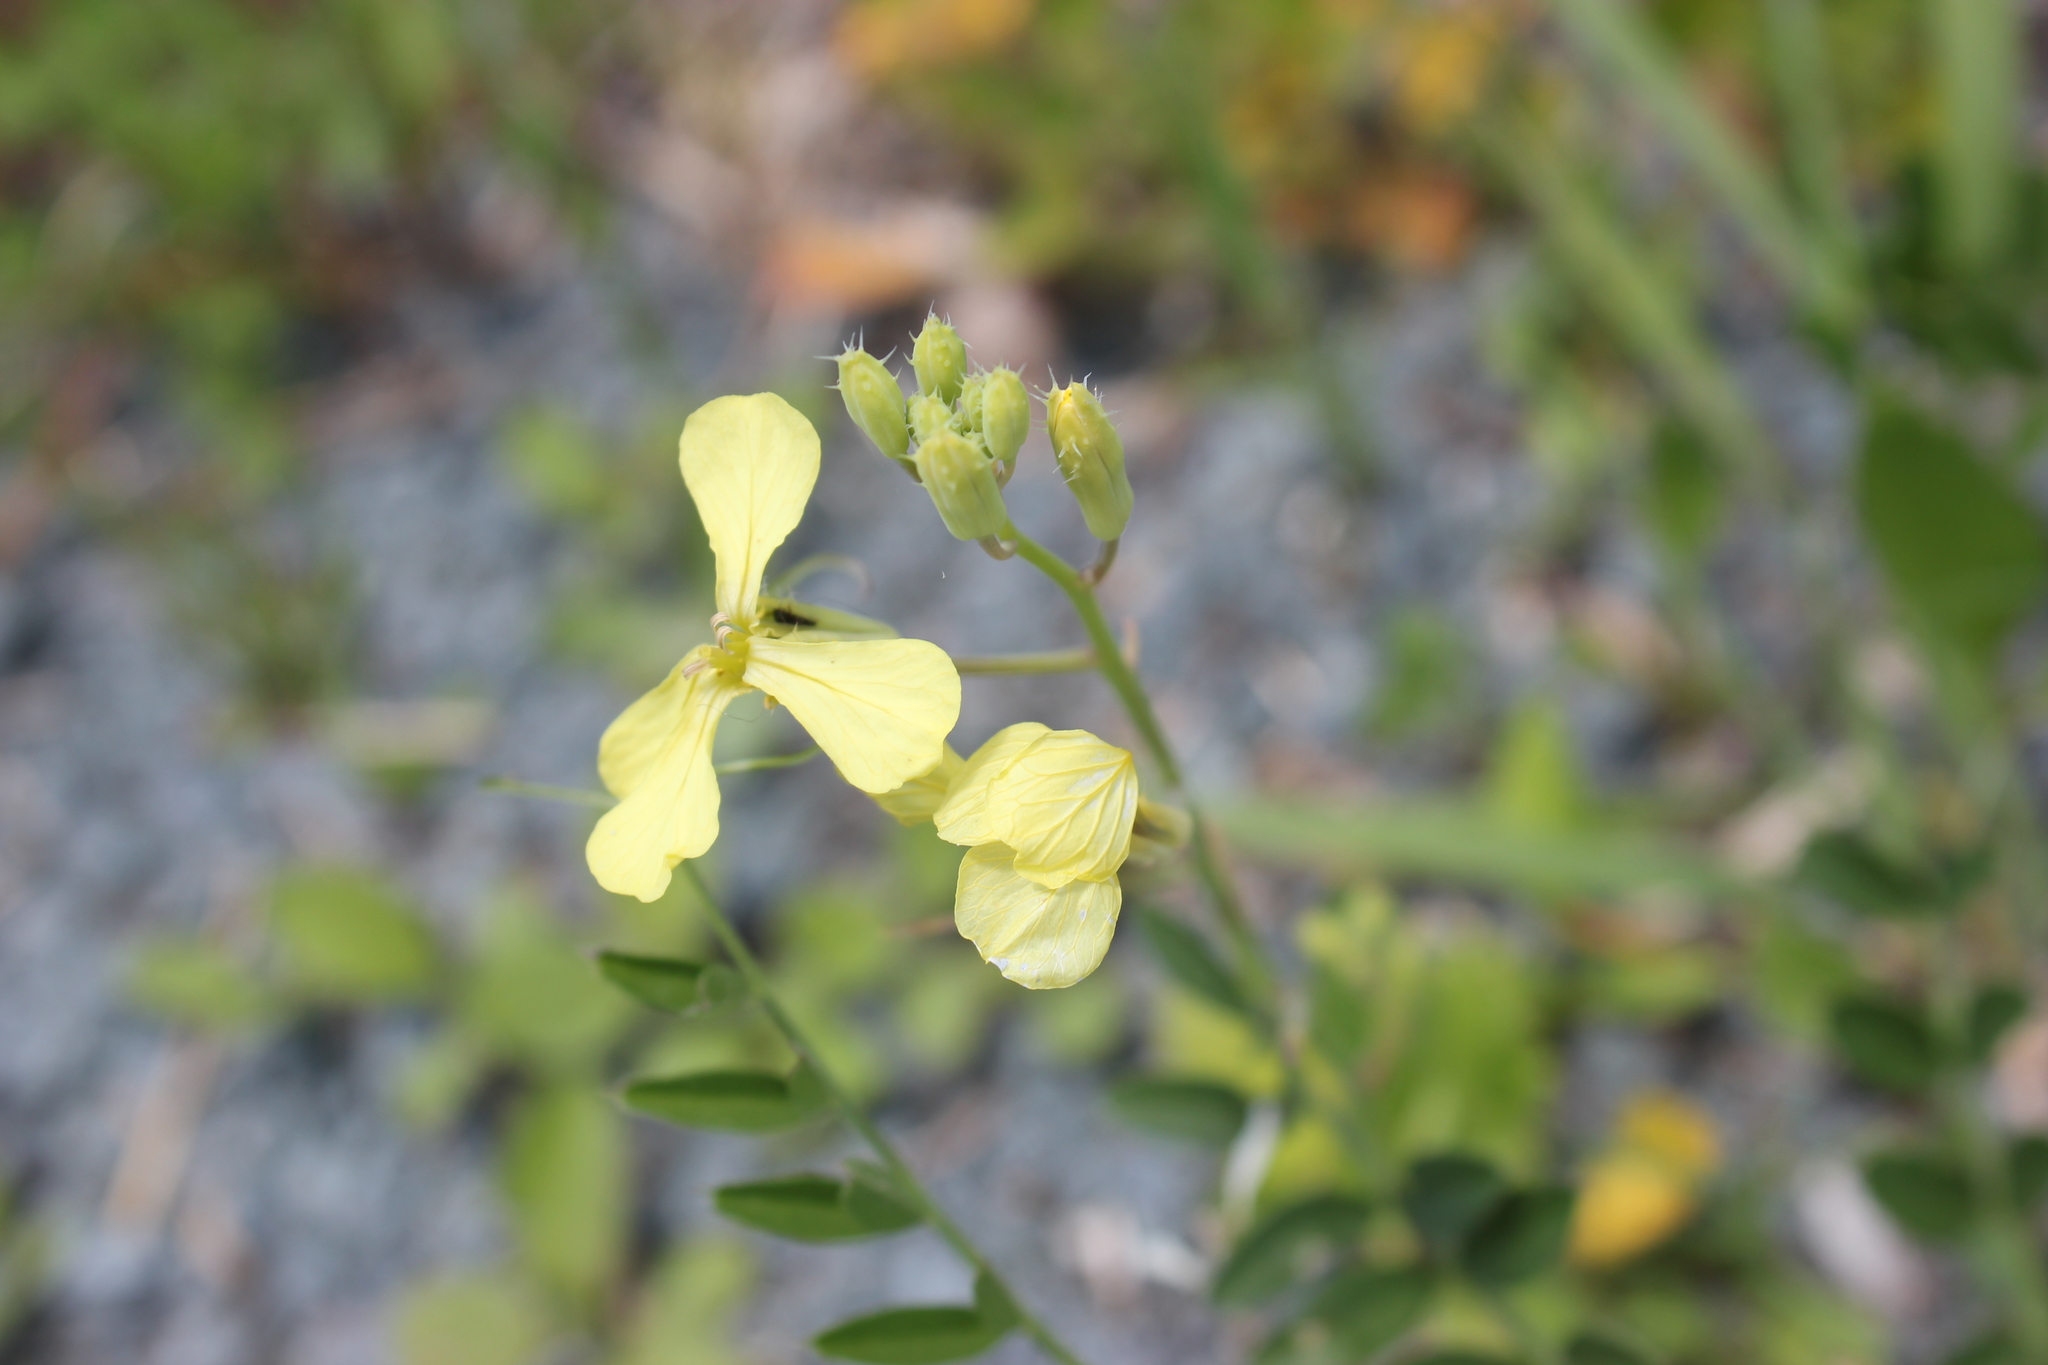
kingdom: Plantae
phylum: Tracheophyta
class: Magnoliopsida
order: Brassicales
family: Brassicaceae
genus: Raphanus
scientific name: Raphanus raphanistrum
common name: Wild radish
